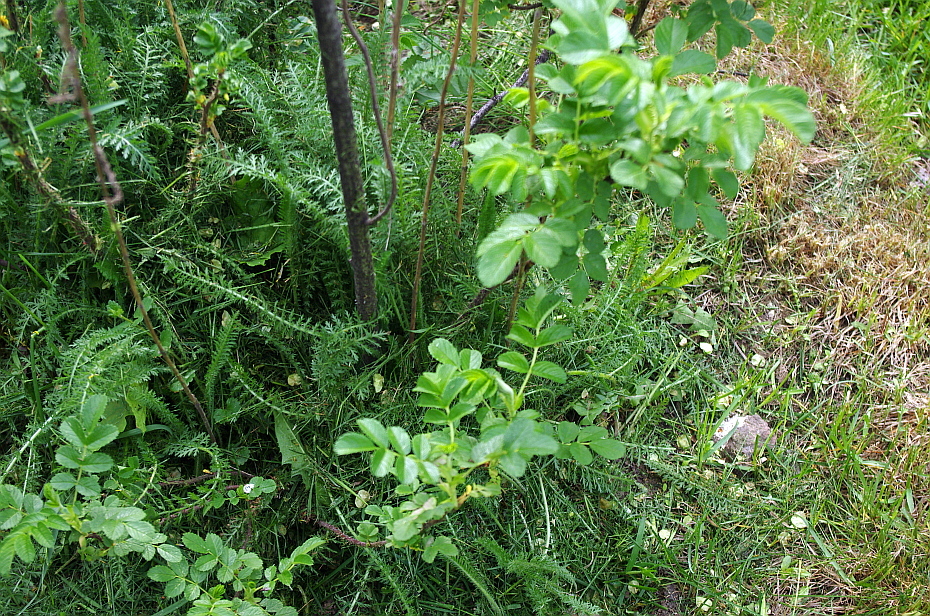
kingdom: Plantae
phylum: Tracheophyta
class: Magnoliopsida
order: Asterales
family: Asteraceae
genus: Achillea
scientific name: Achillea millefolium
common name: Yarrow
